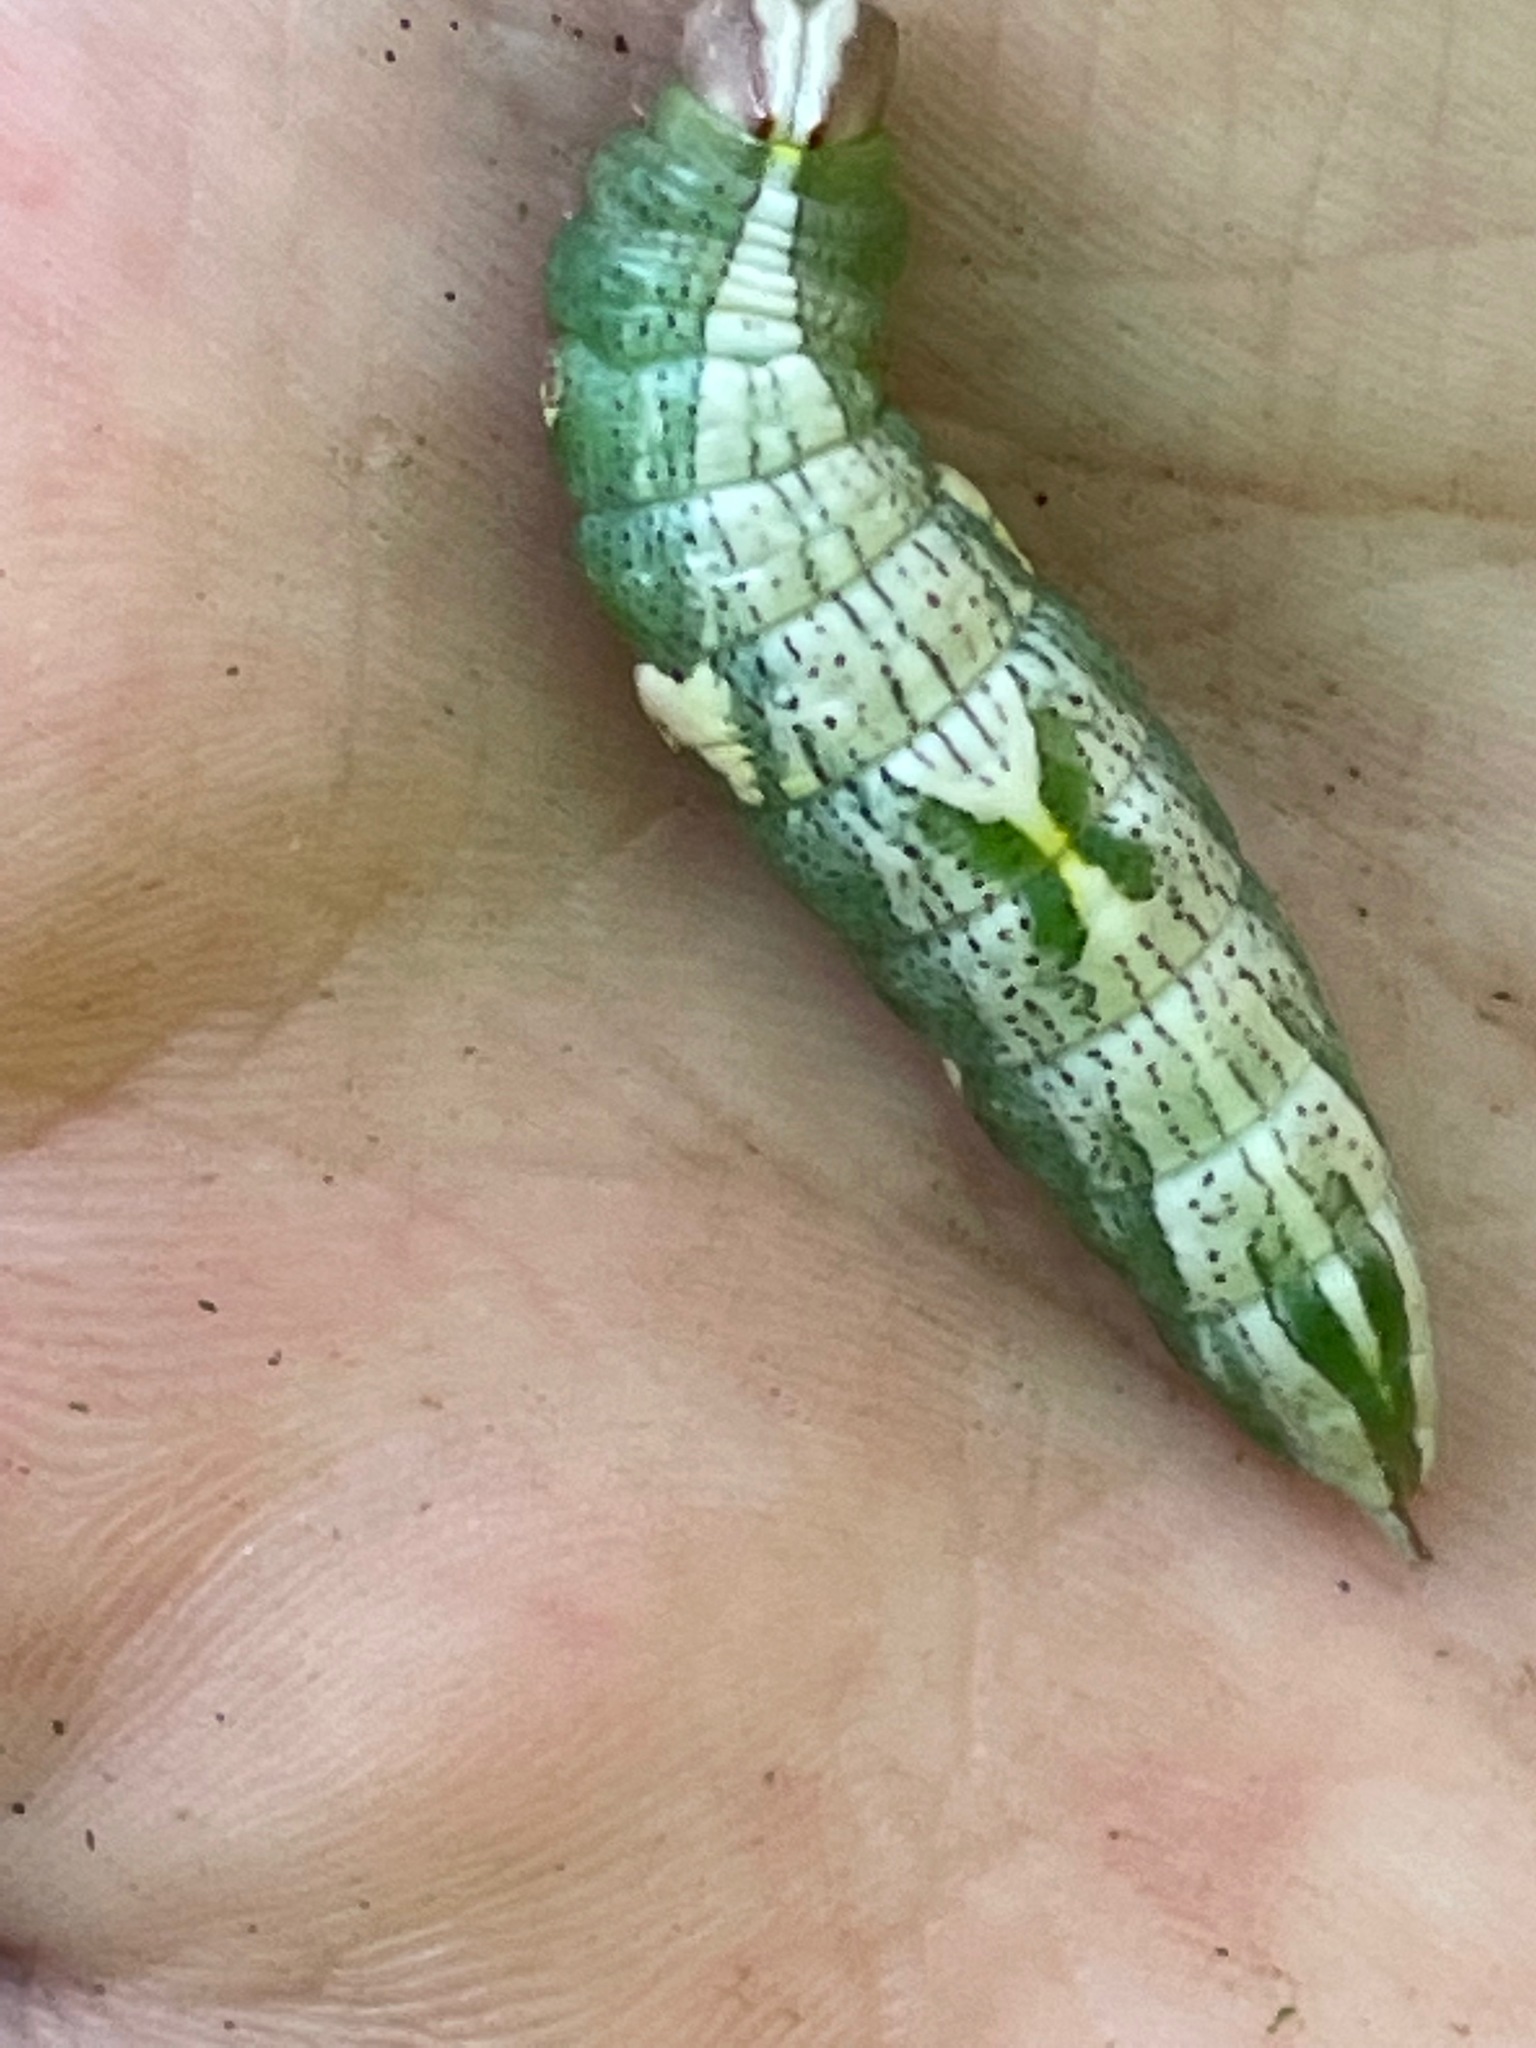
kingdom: Animalia
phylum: Arthropoda
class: Insecta
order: Lepidoptera
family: Notodontidae
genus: Disphragis
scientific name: Disphragis Cecrita biundata
